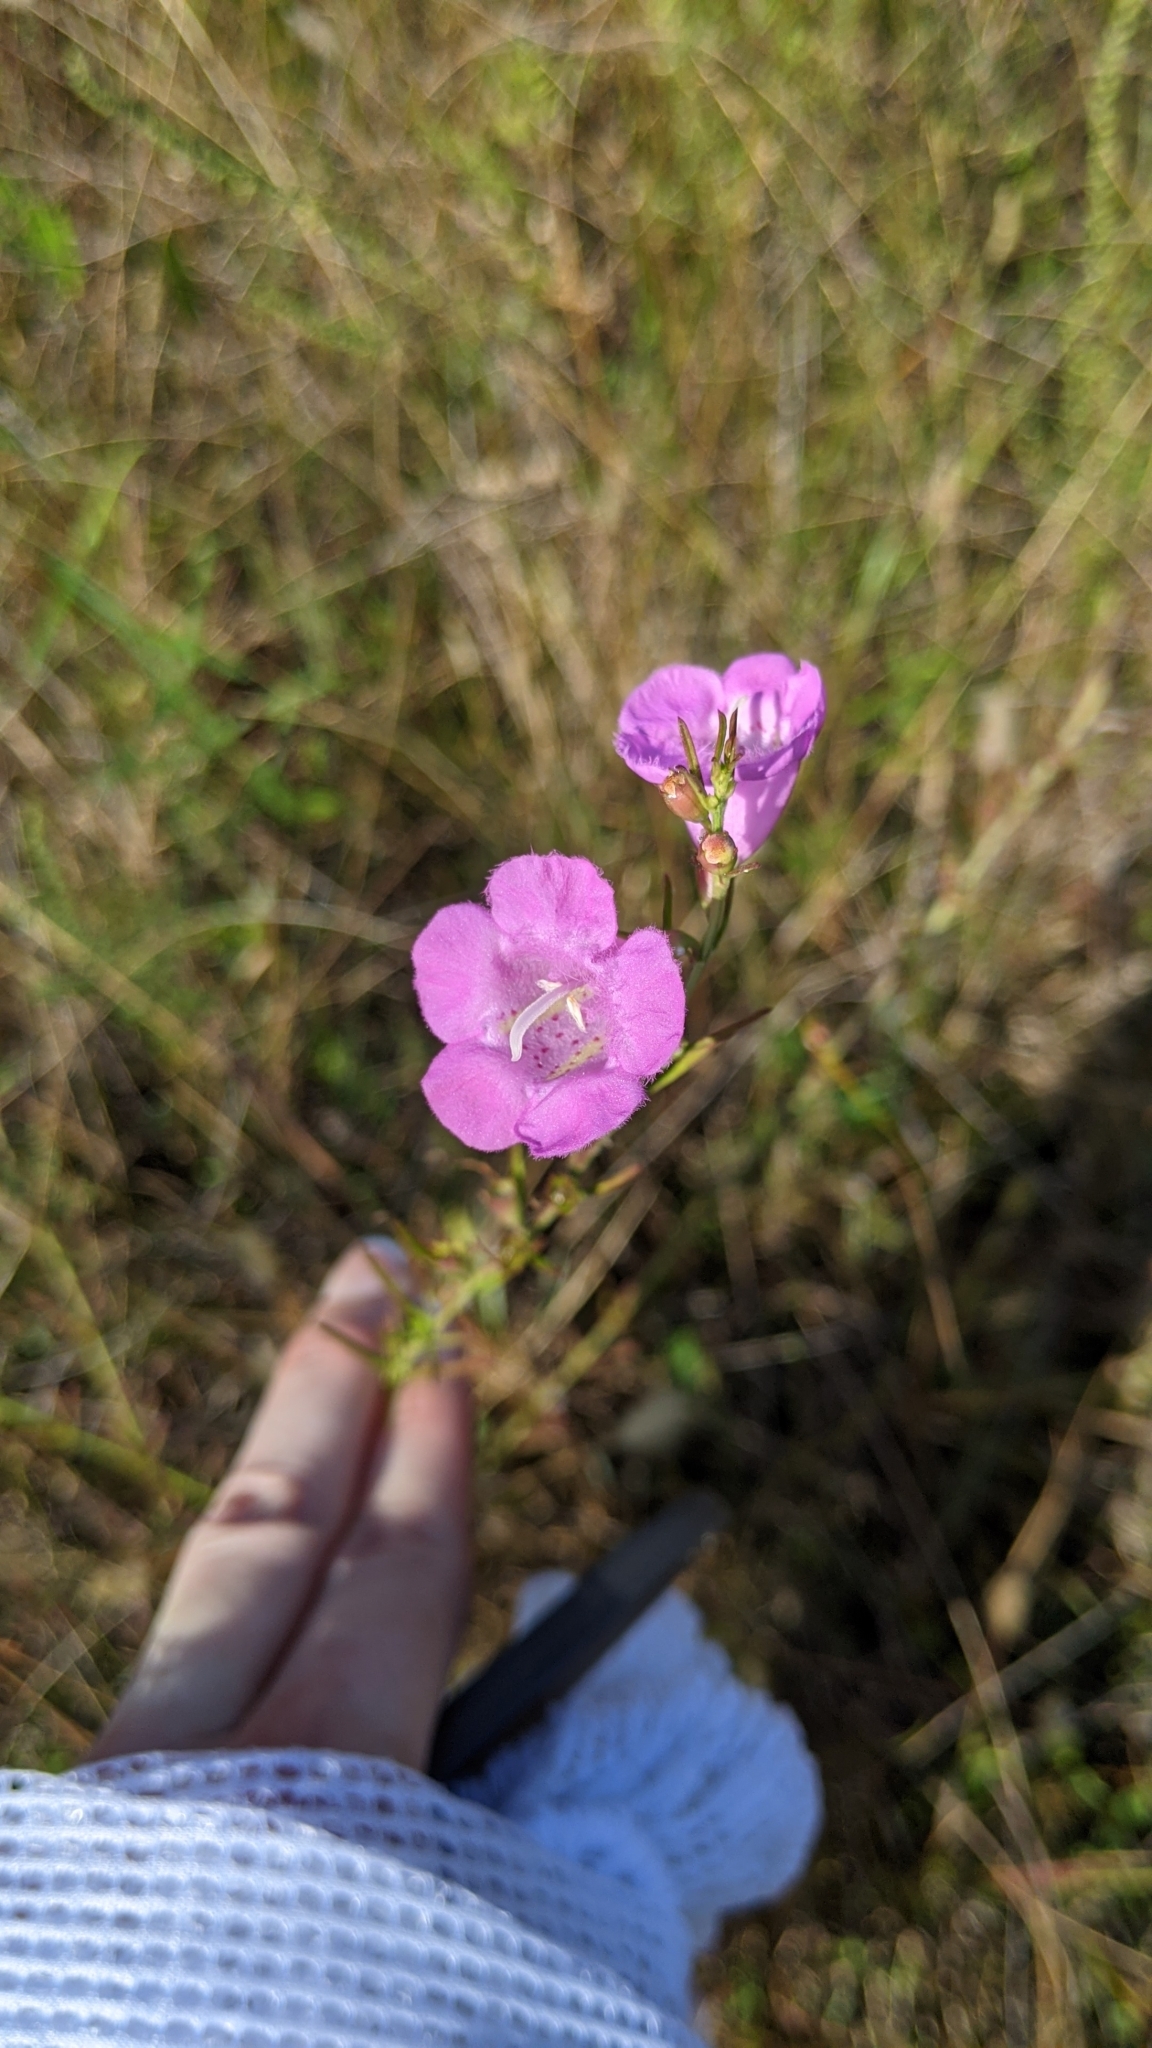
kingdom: Plantae
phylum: Tracheophyta
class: Magnoliopsida
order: Lamiales
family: Orobanchaceae
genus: Agalinis
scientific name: Agalinis fasciculata
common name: Beach false foxglove
